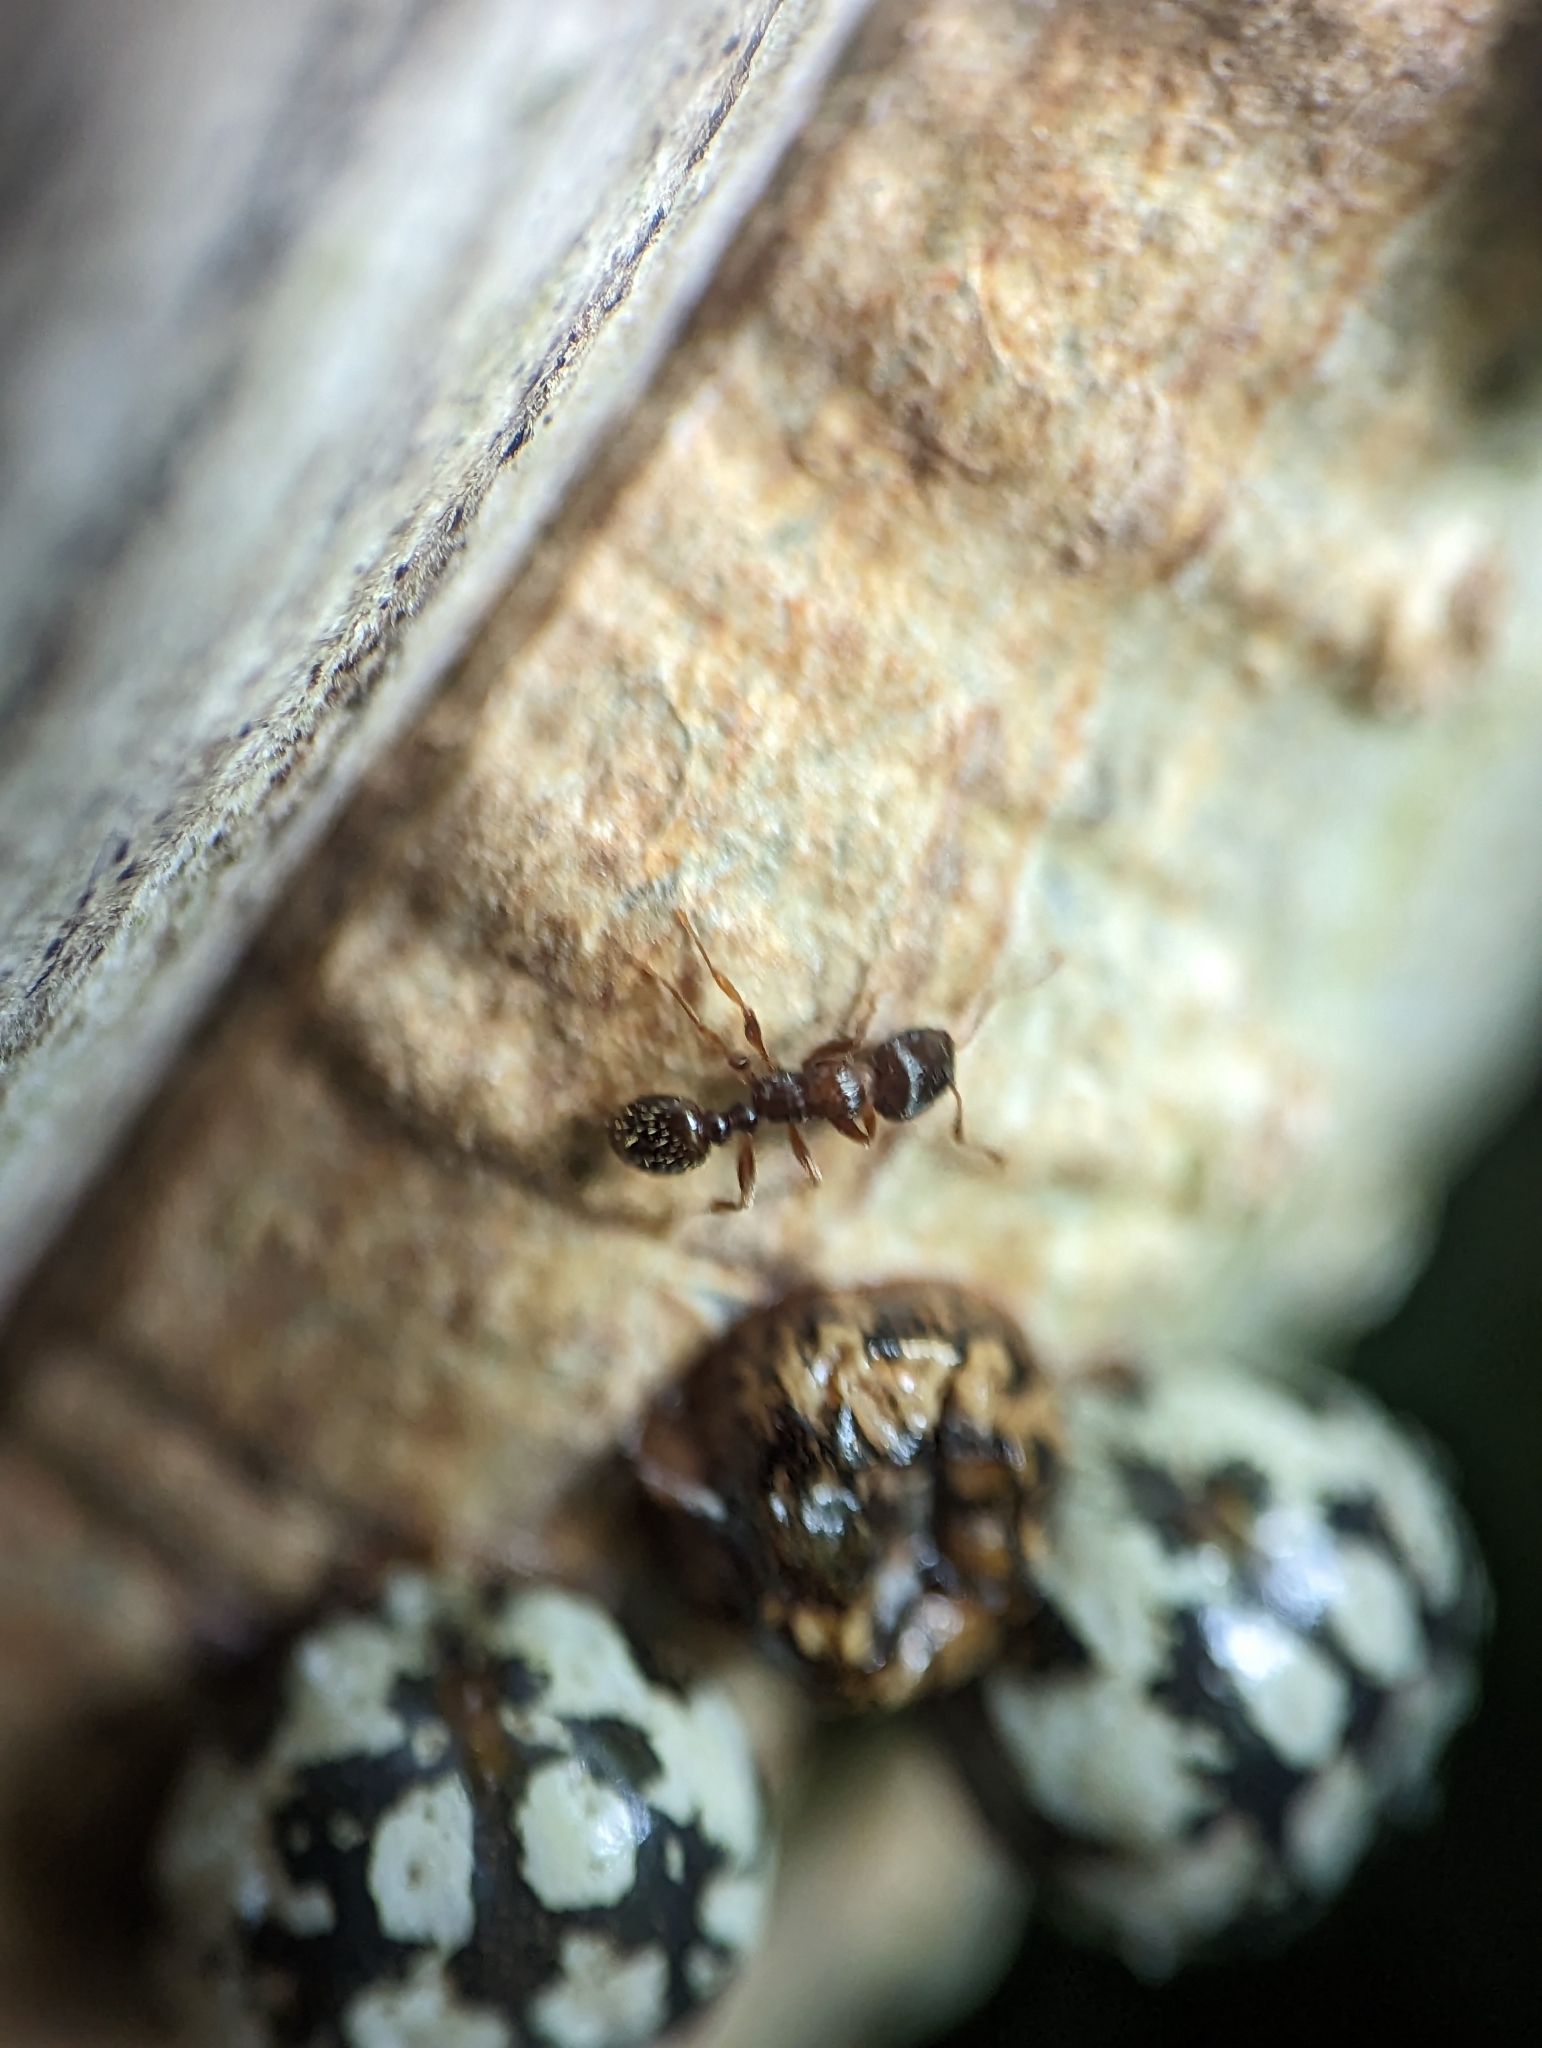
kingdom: Animalia
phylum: Arthropoda
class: Insecta
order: Hymenoptera
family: Formicidae
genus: Tetramorium
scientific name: Tetramorium immigrans
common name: Pavement ant
